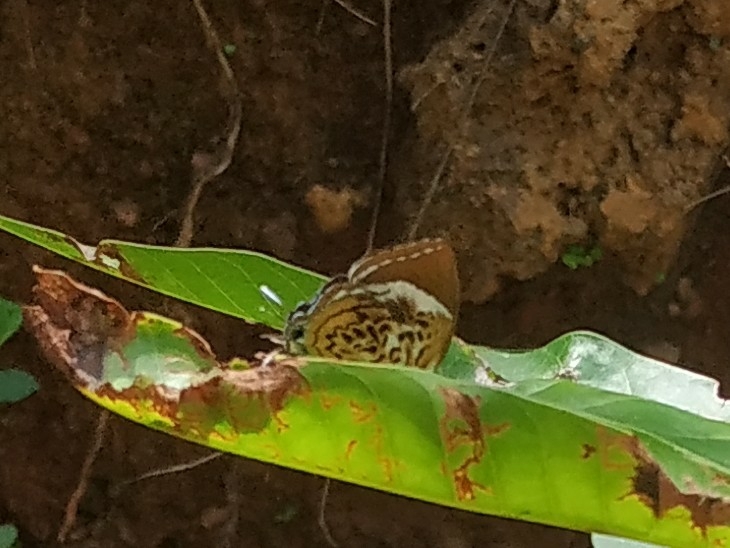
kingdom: Animalia
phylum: Arthropoda
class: Insecta
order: Lepidoptera
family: Lycaenidae
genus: Rathinda
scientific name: Rathinda amor
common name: Monkey puzzle
